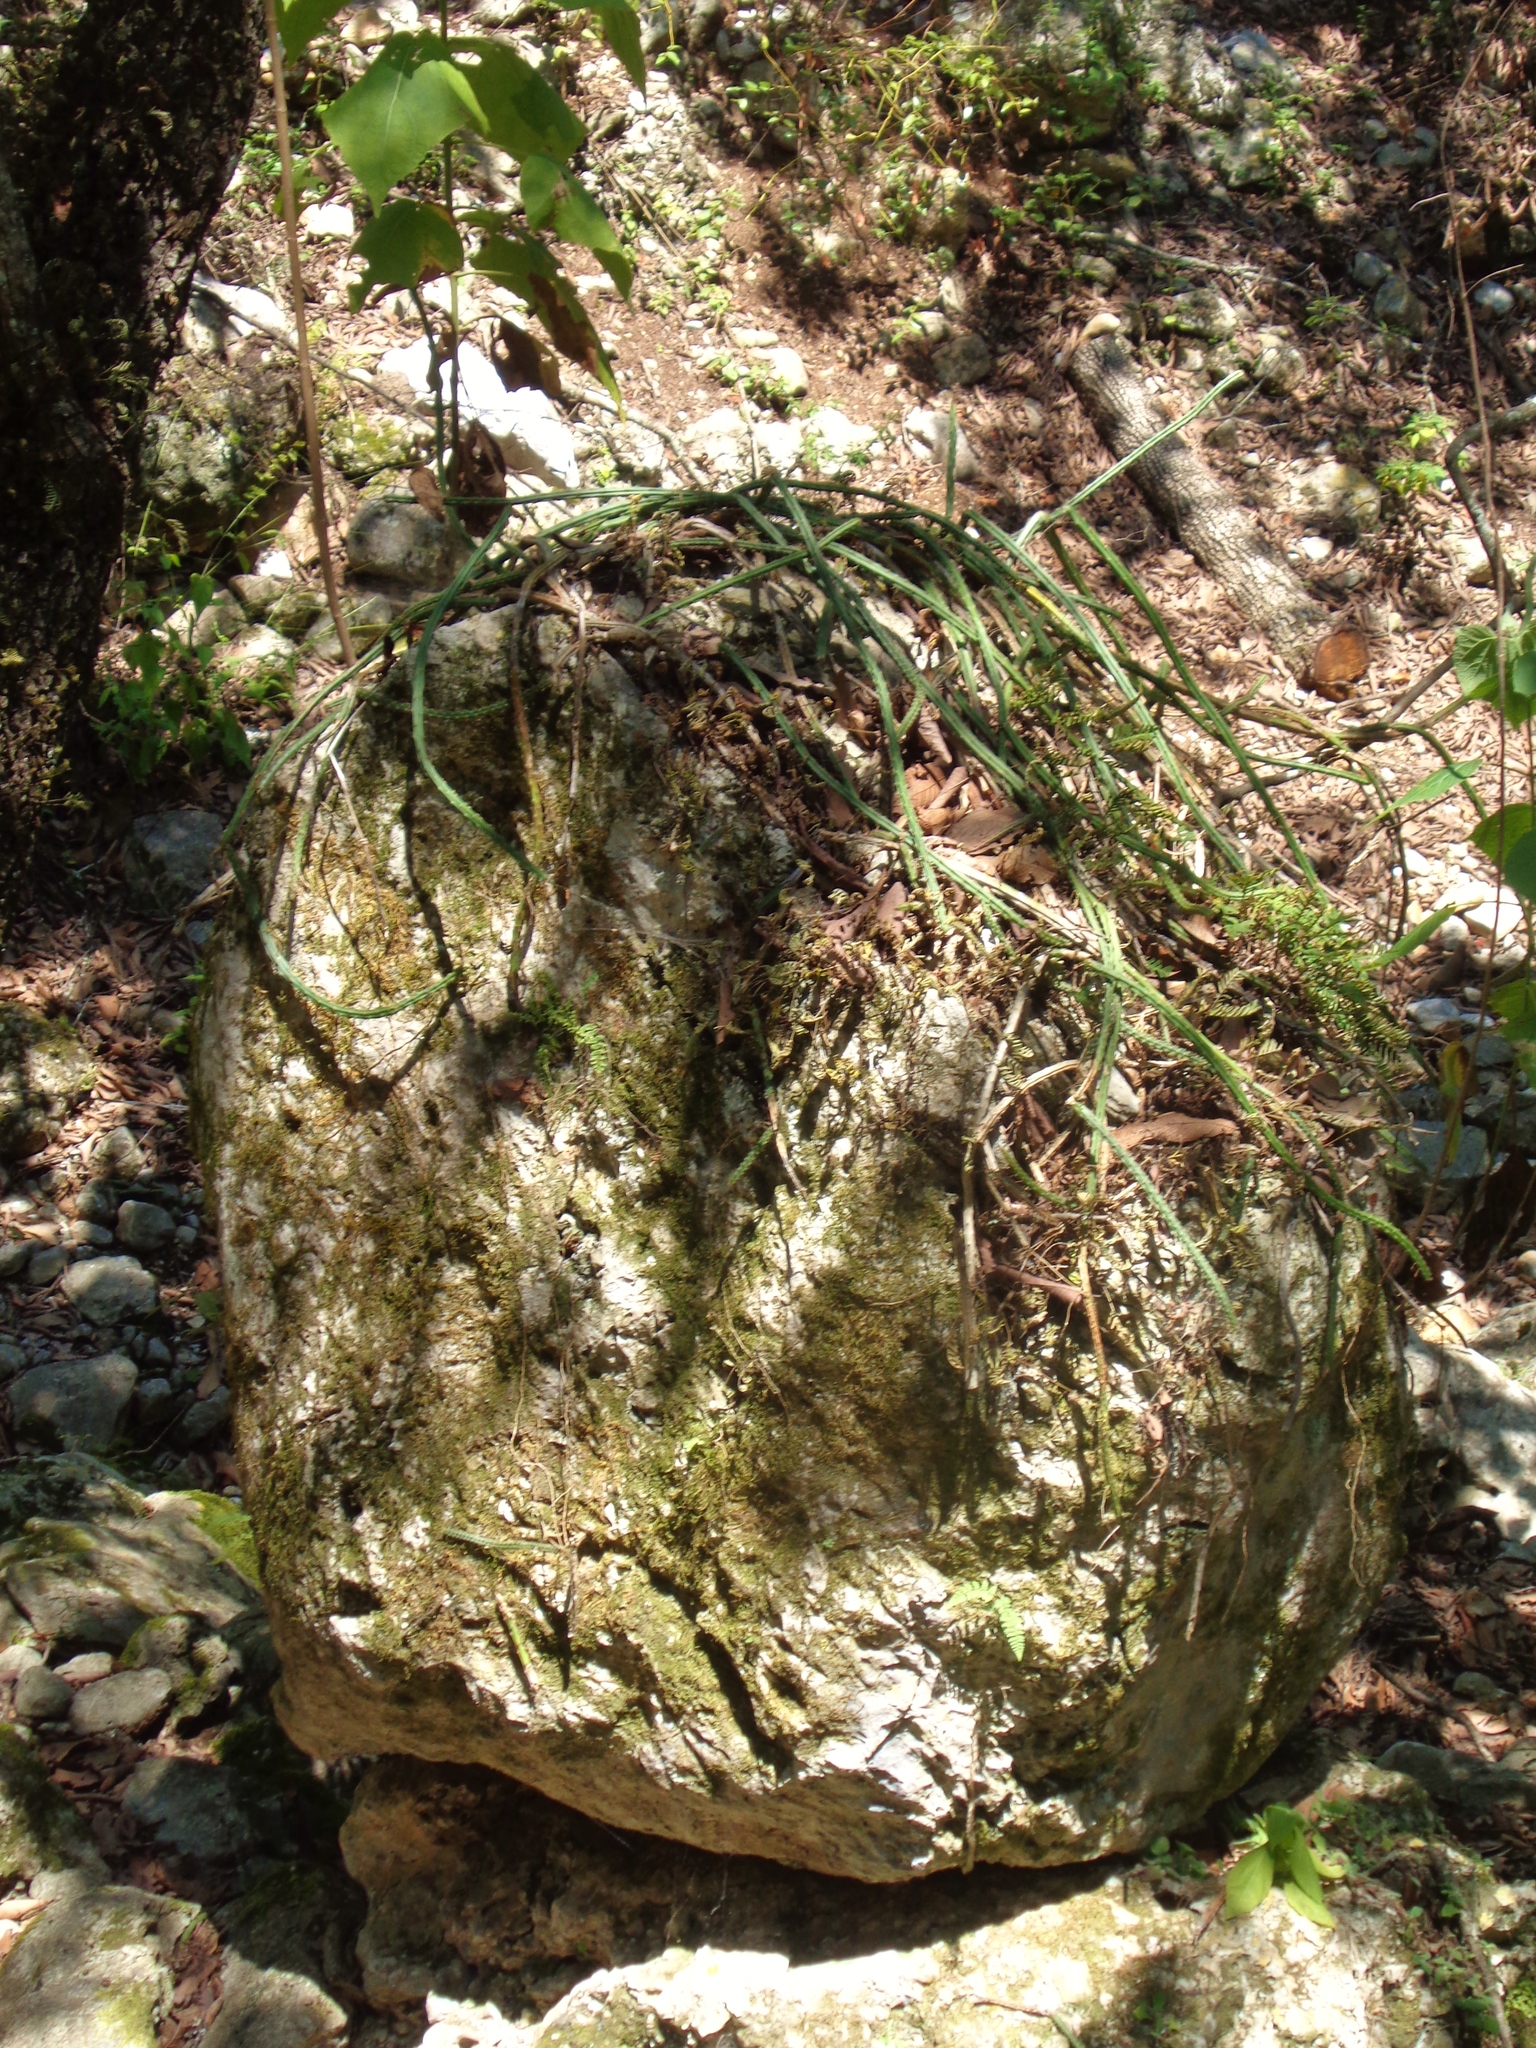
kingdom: Plantae
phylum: Tracheophyta
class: Magnoliopsida
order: Caryophyllales
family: Cactaceae
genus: Selenicereus
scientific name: Selenicereus spinulosus
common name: Nightblooming cereus
